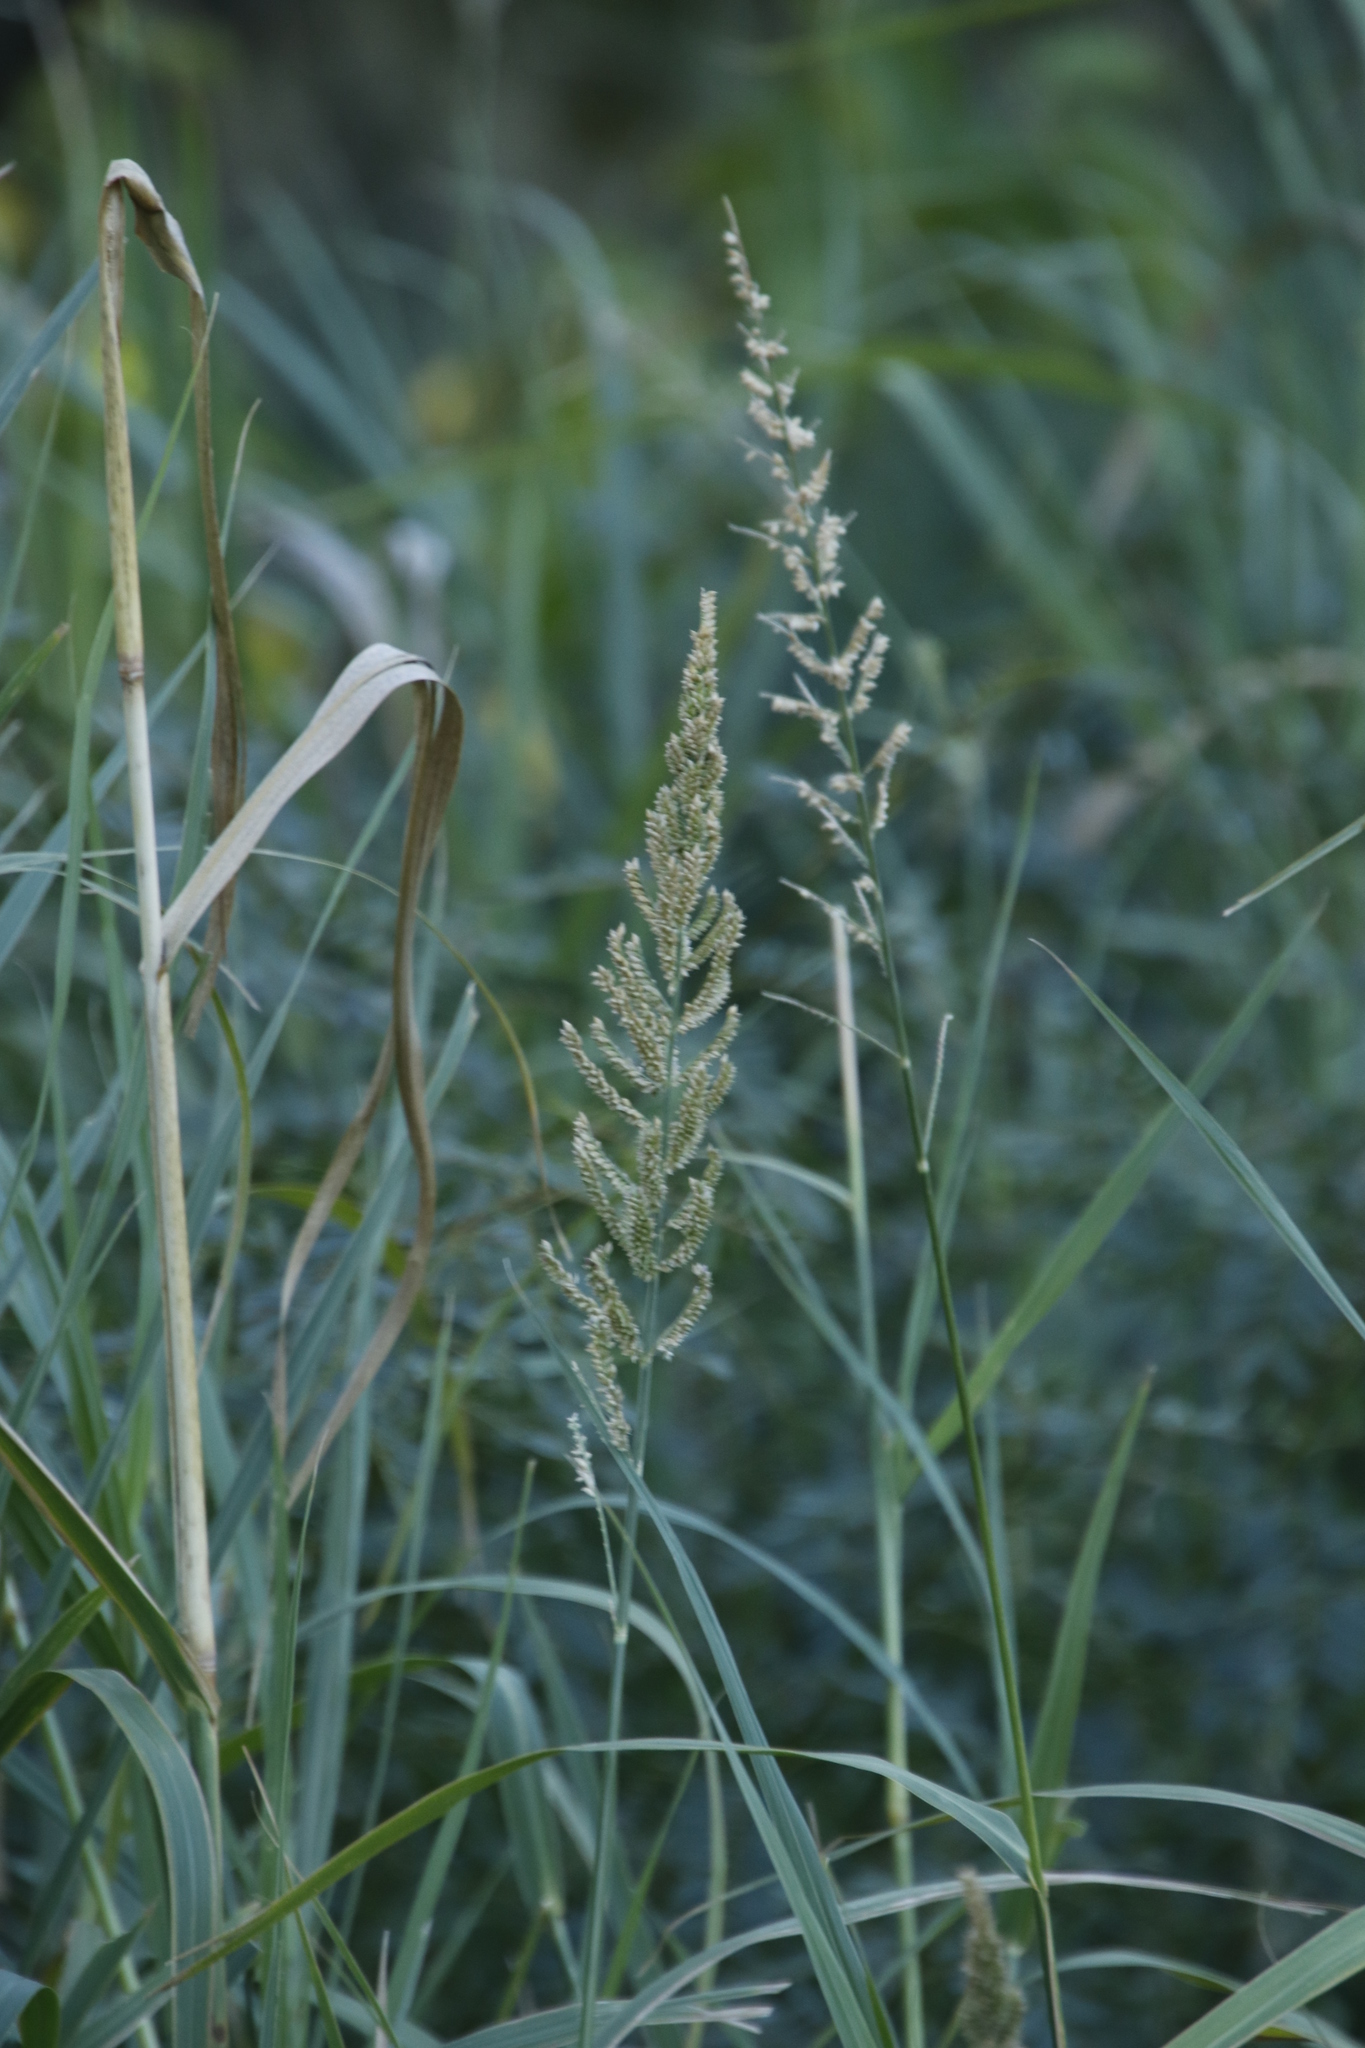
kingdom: Plantae
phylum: Tracheophyta
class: Liliopsida
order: Poales
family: Poaceae
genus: Echinochloa
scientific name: Echinochloa pyramidalis
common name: Antelope grass
